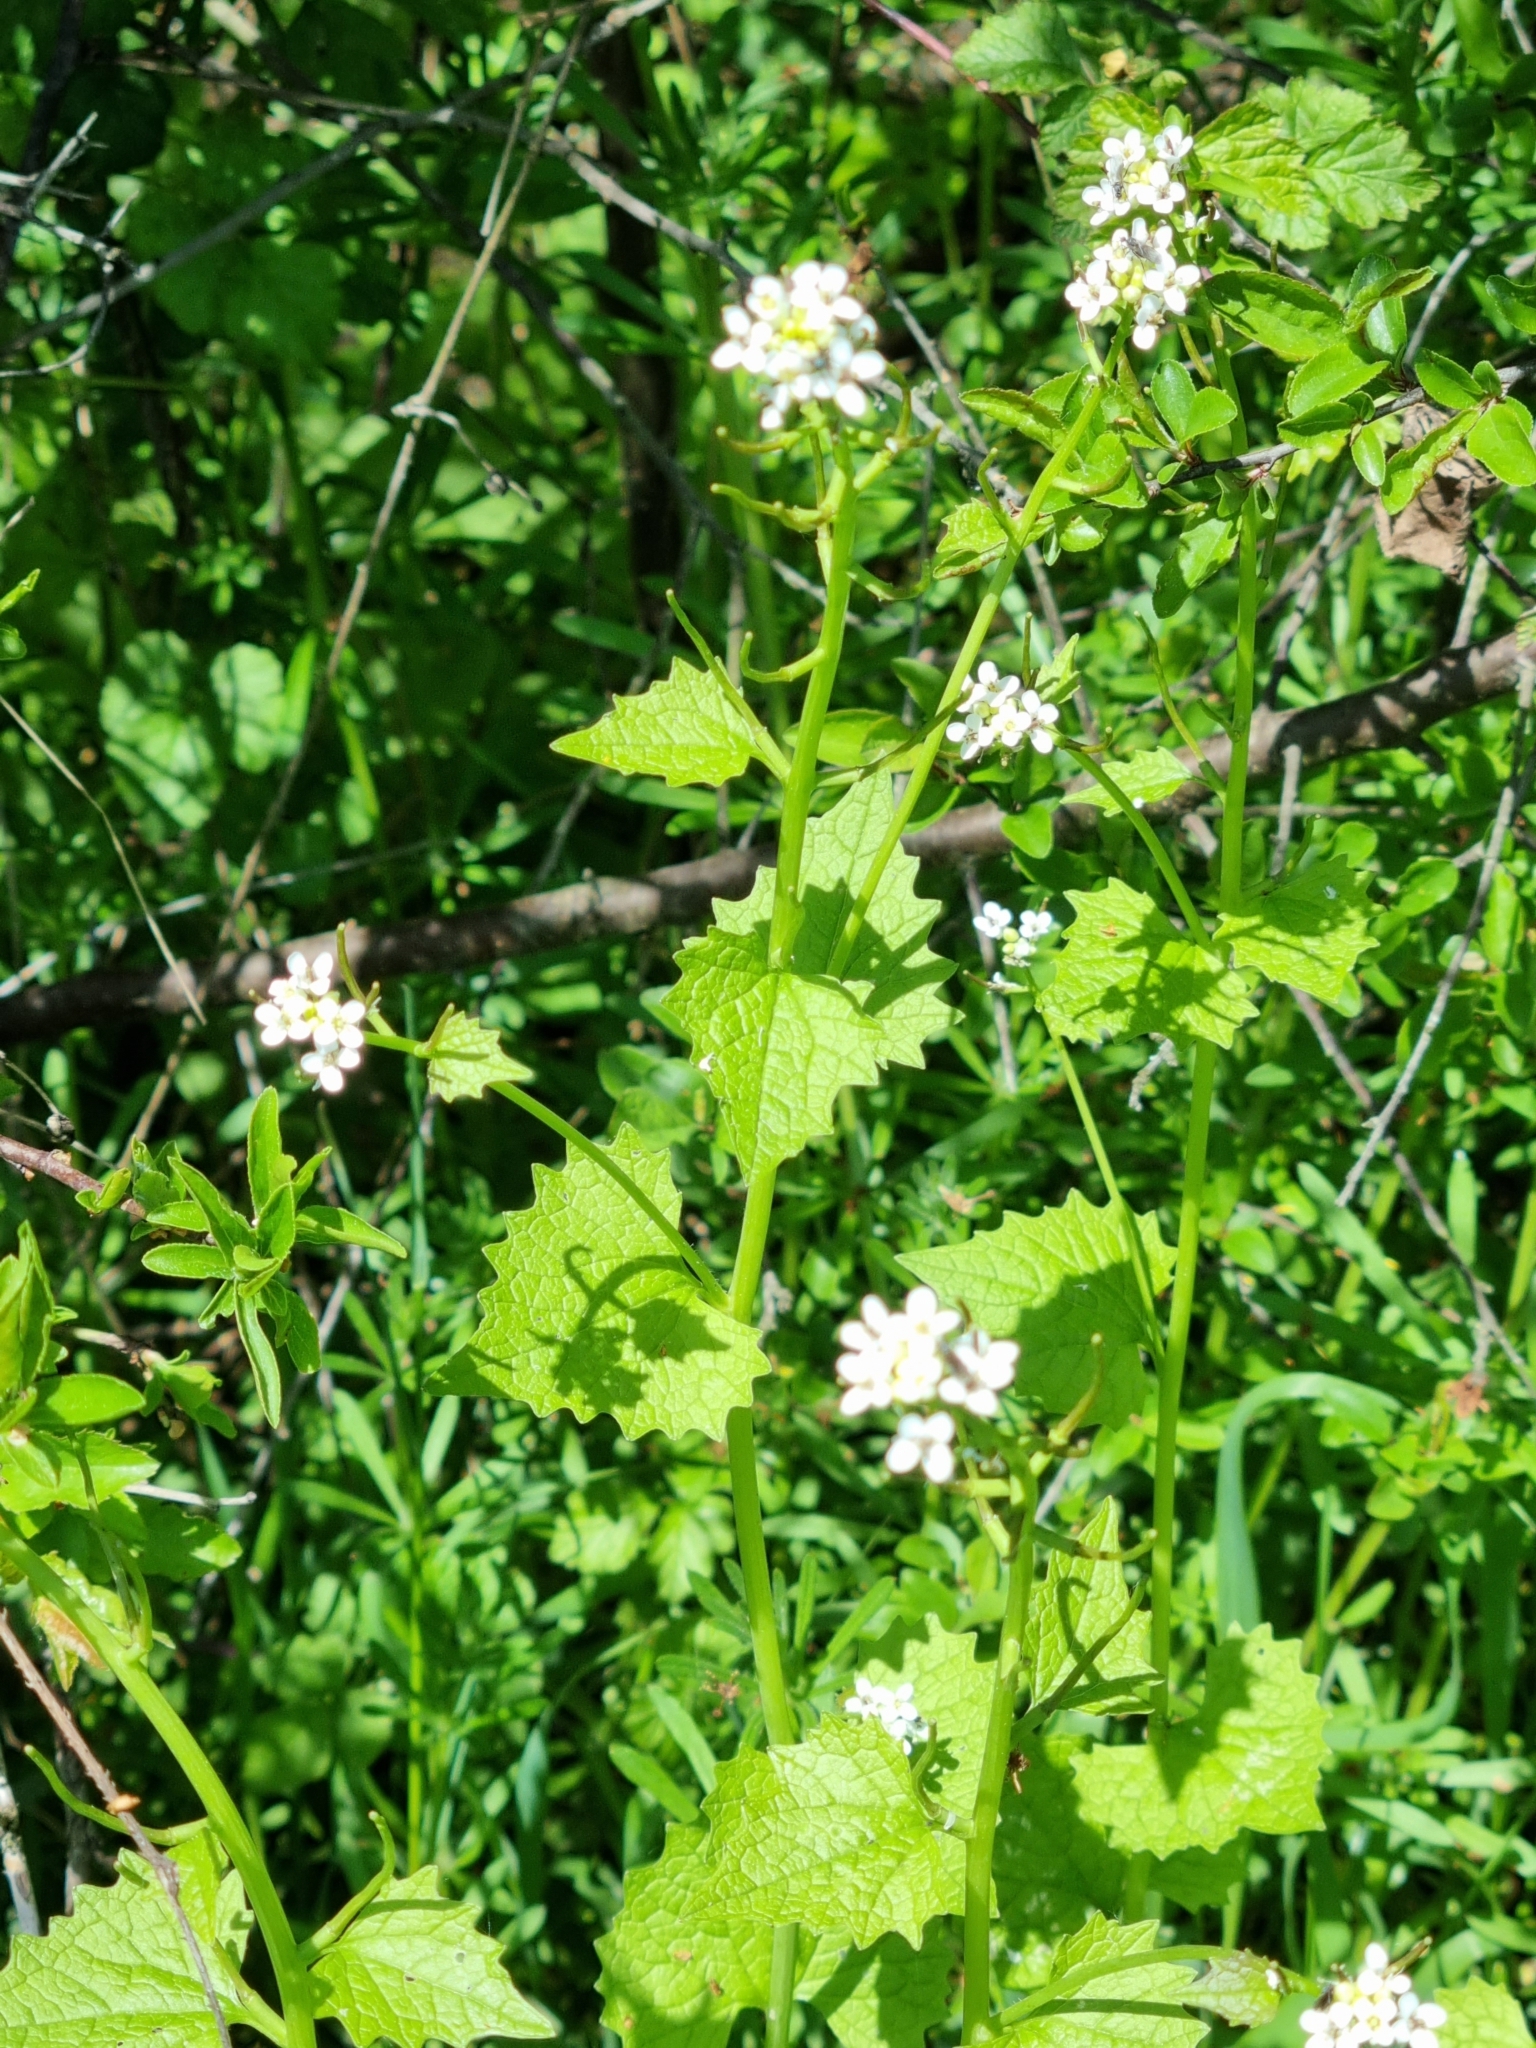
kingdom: Plantae
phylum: Tracheophyta
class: Magnoliopsida
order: Brassicales
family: Brassicaceae
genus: Alliaria
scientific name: Alliaria petiolata
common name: Garlic mustard
